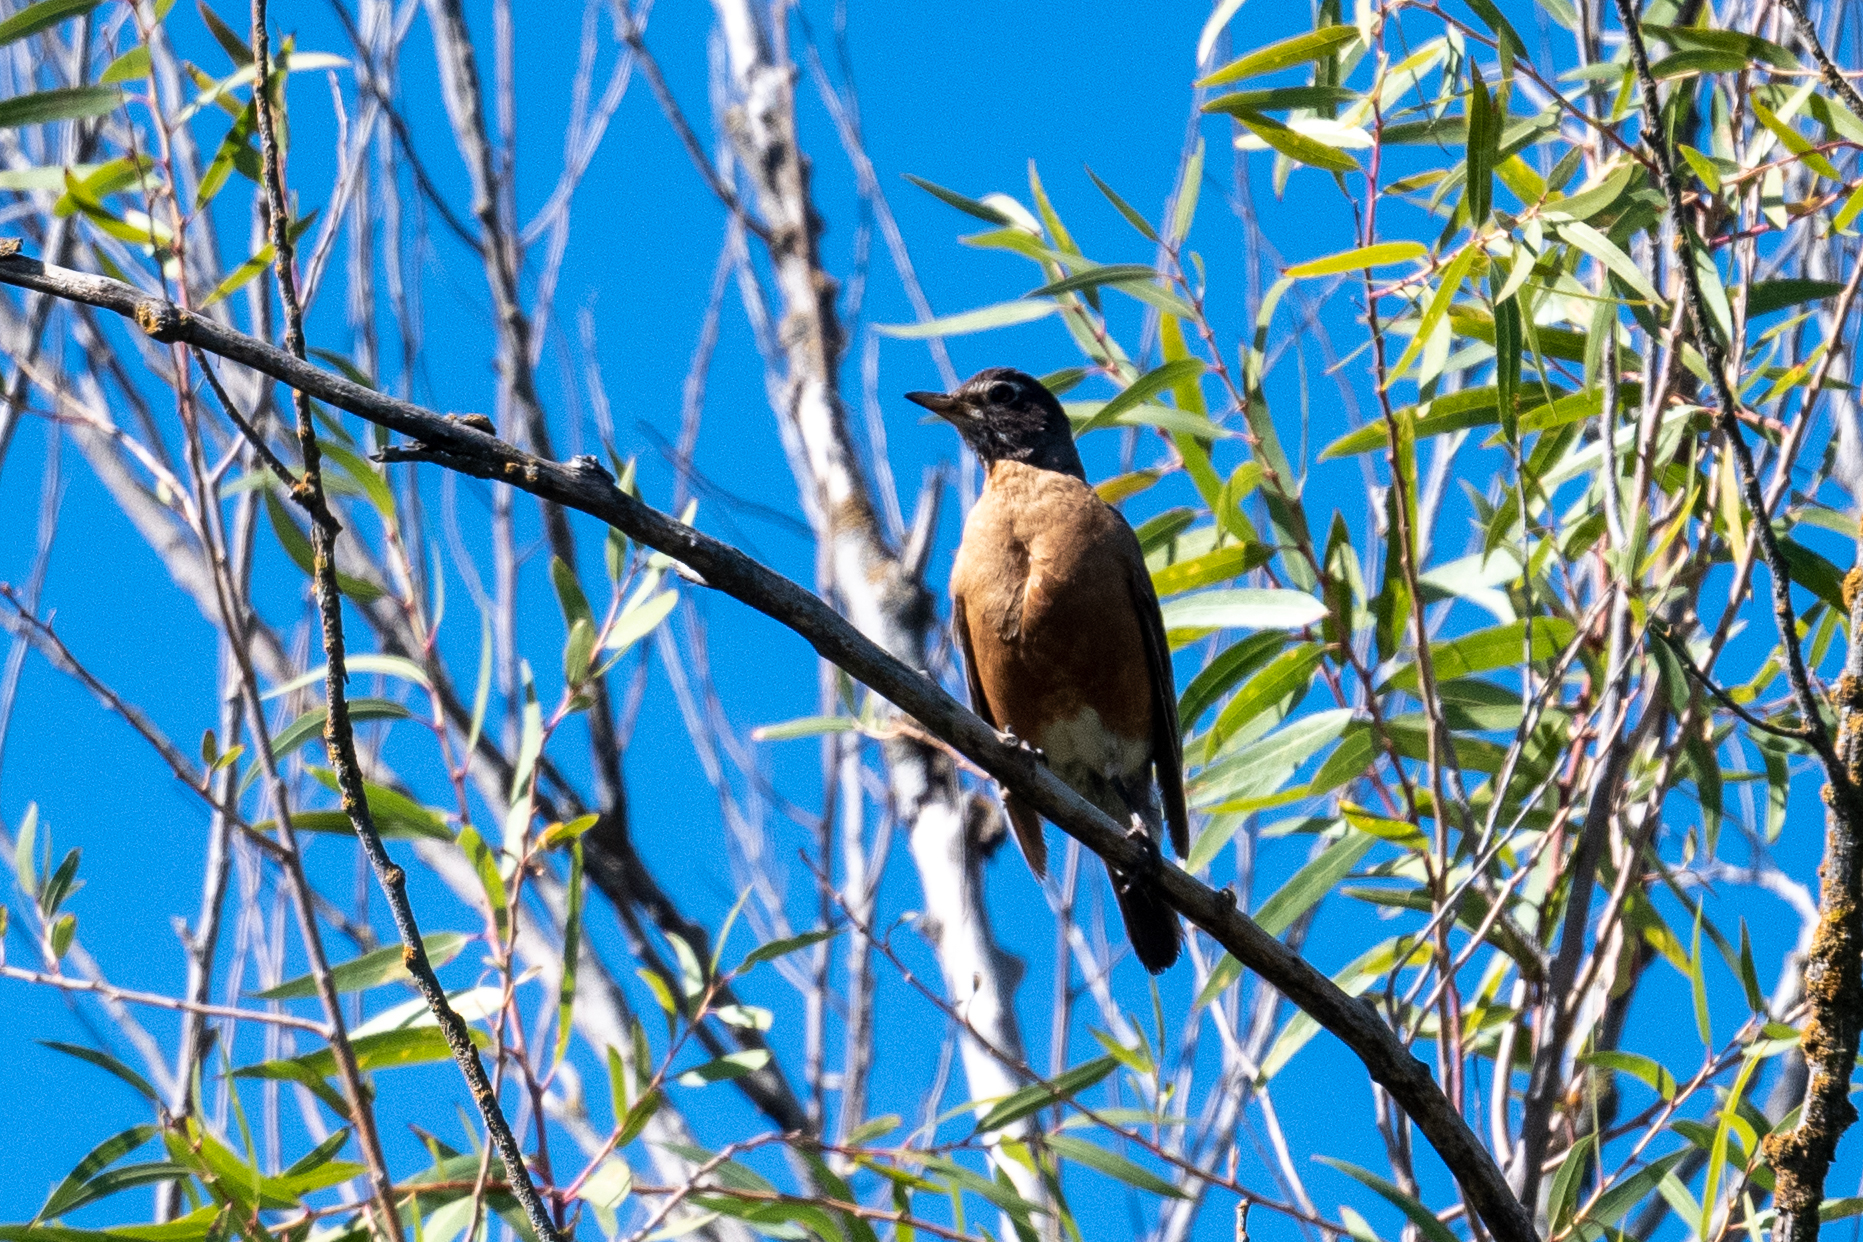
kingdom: Animalia
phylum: Chordata
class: Aves
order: Passeriformes
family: Turdidae
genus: Turdus
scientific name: Turdus migratorius
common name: American robin
